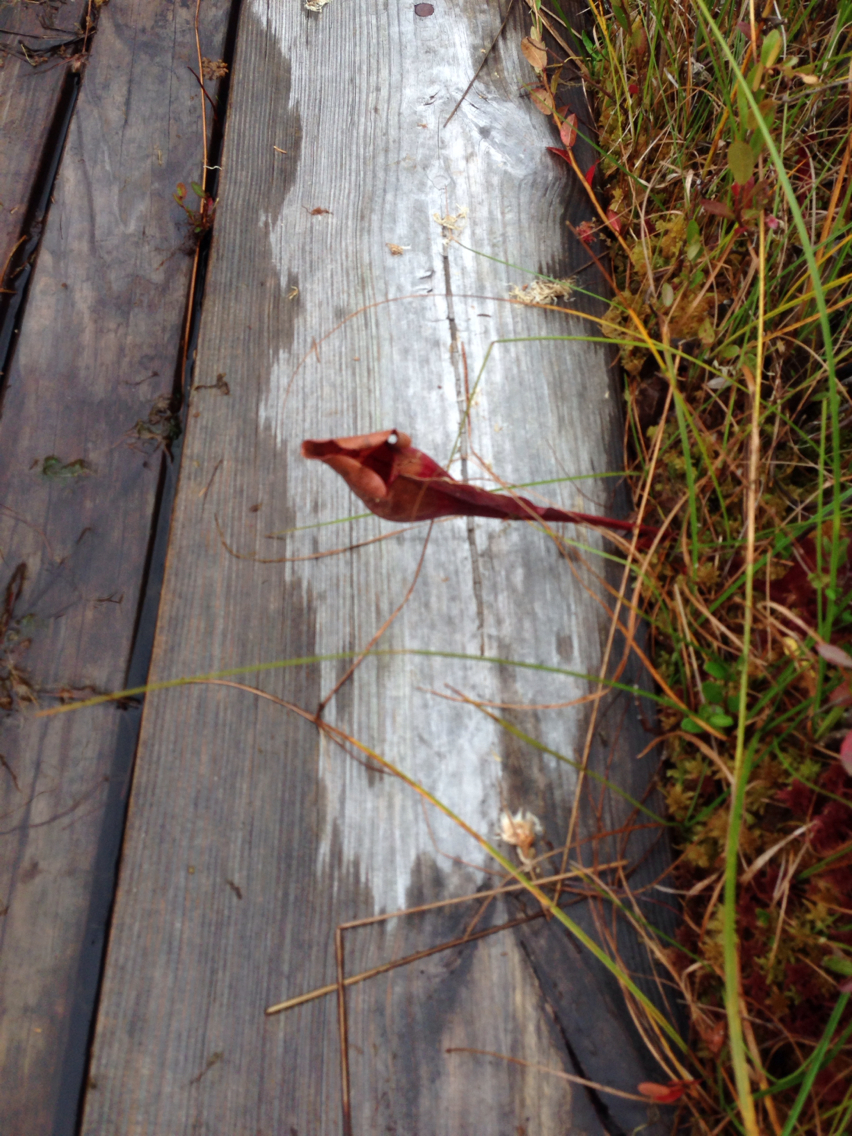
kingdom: Plantae
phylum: Tracheophyta
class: Magnoliopsida
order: Ericales
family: Sarraceniaceae
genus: Sarracenia
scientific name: Sarracenia purpurea
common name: Pitcherplant
